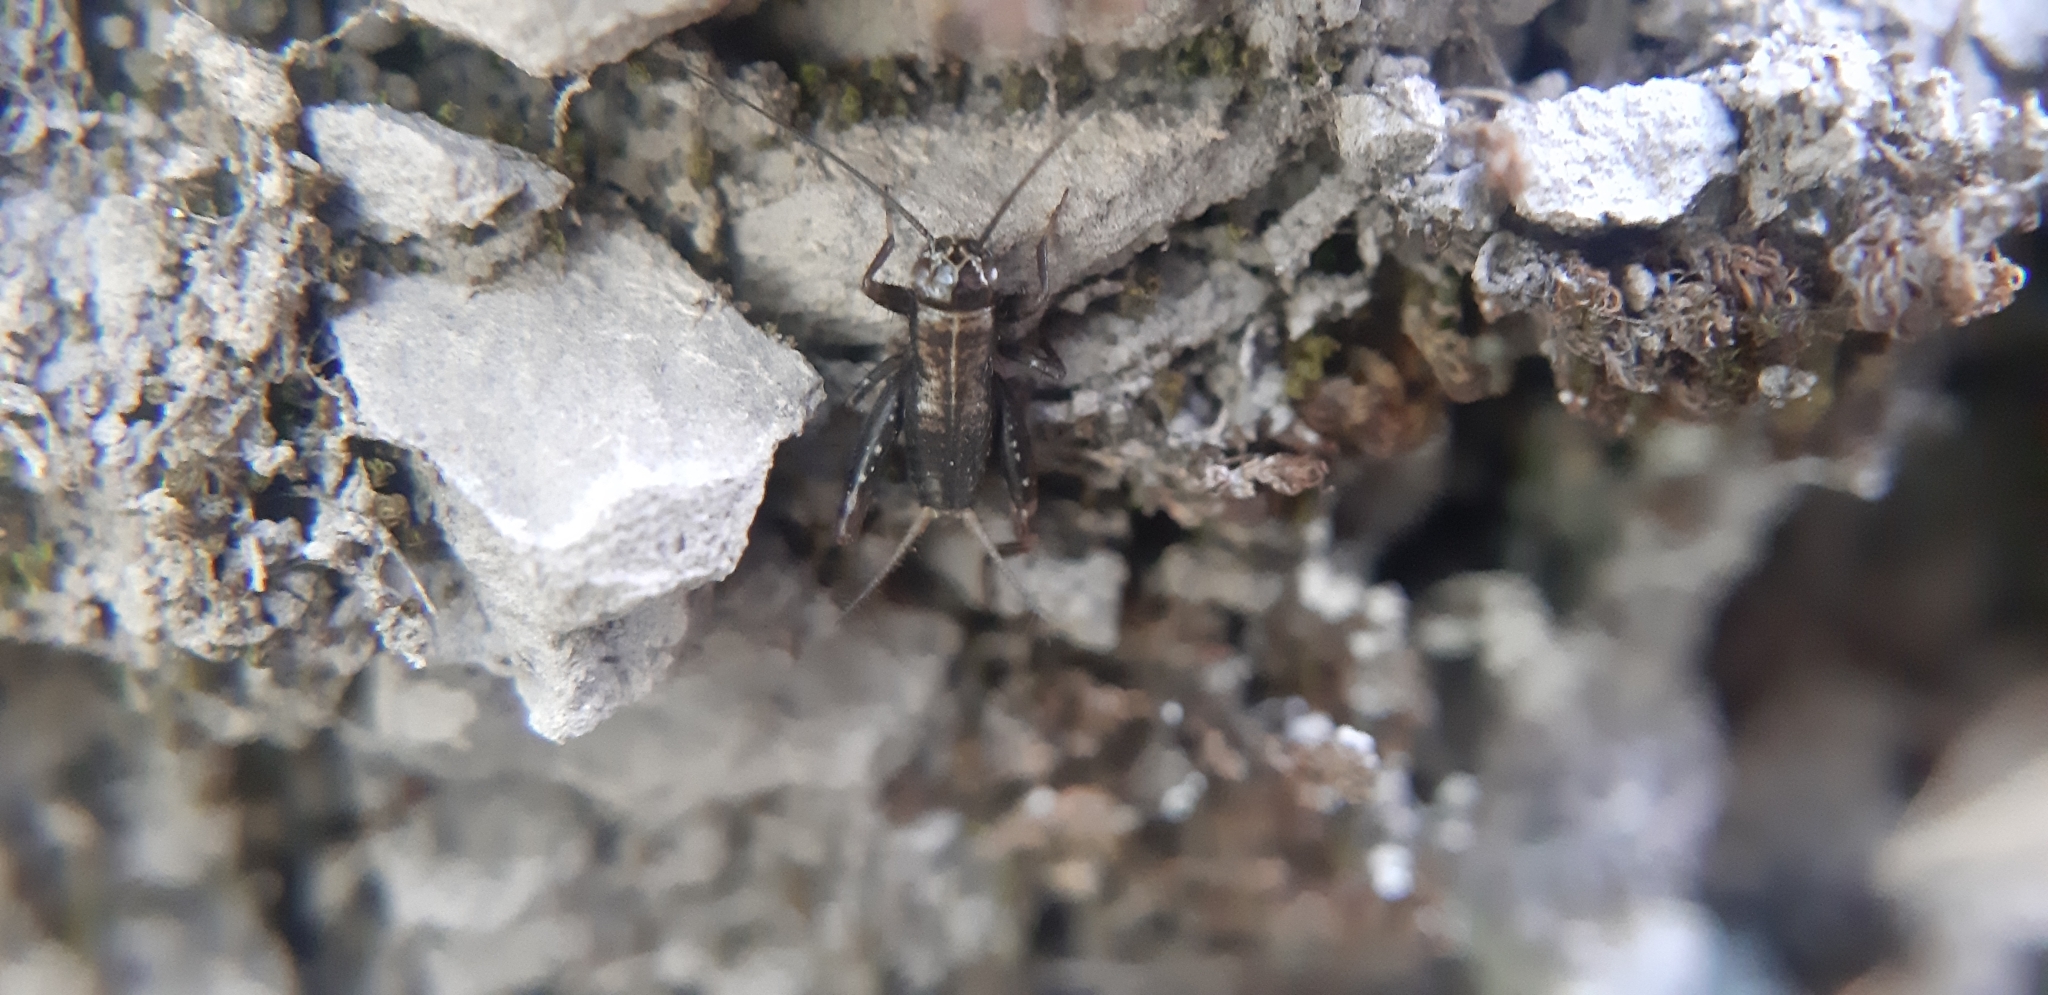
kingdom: Animalia
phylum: Arthropoda
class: Insecta
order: Orthoptera
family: Trigonidiidae
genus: Nemobius
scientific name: Nemobius sylvestris
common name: Wood-cricket
